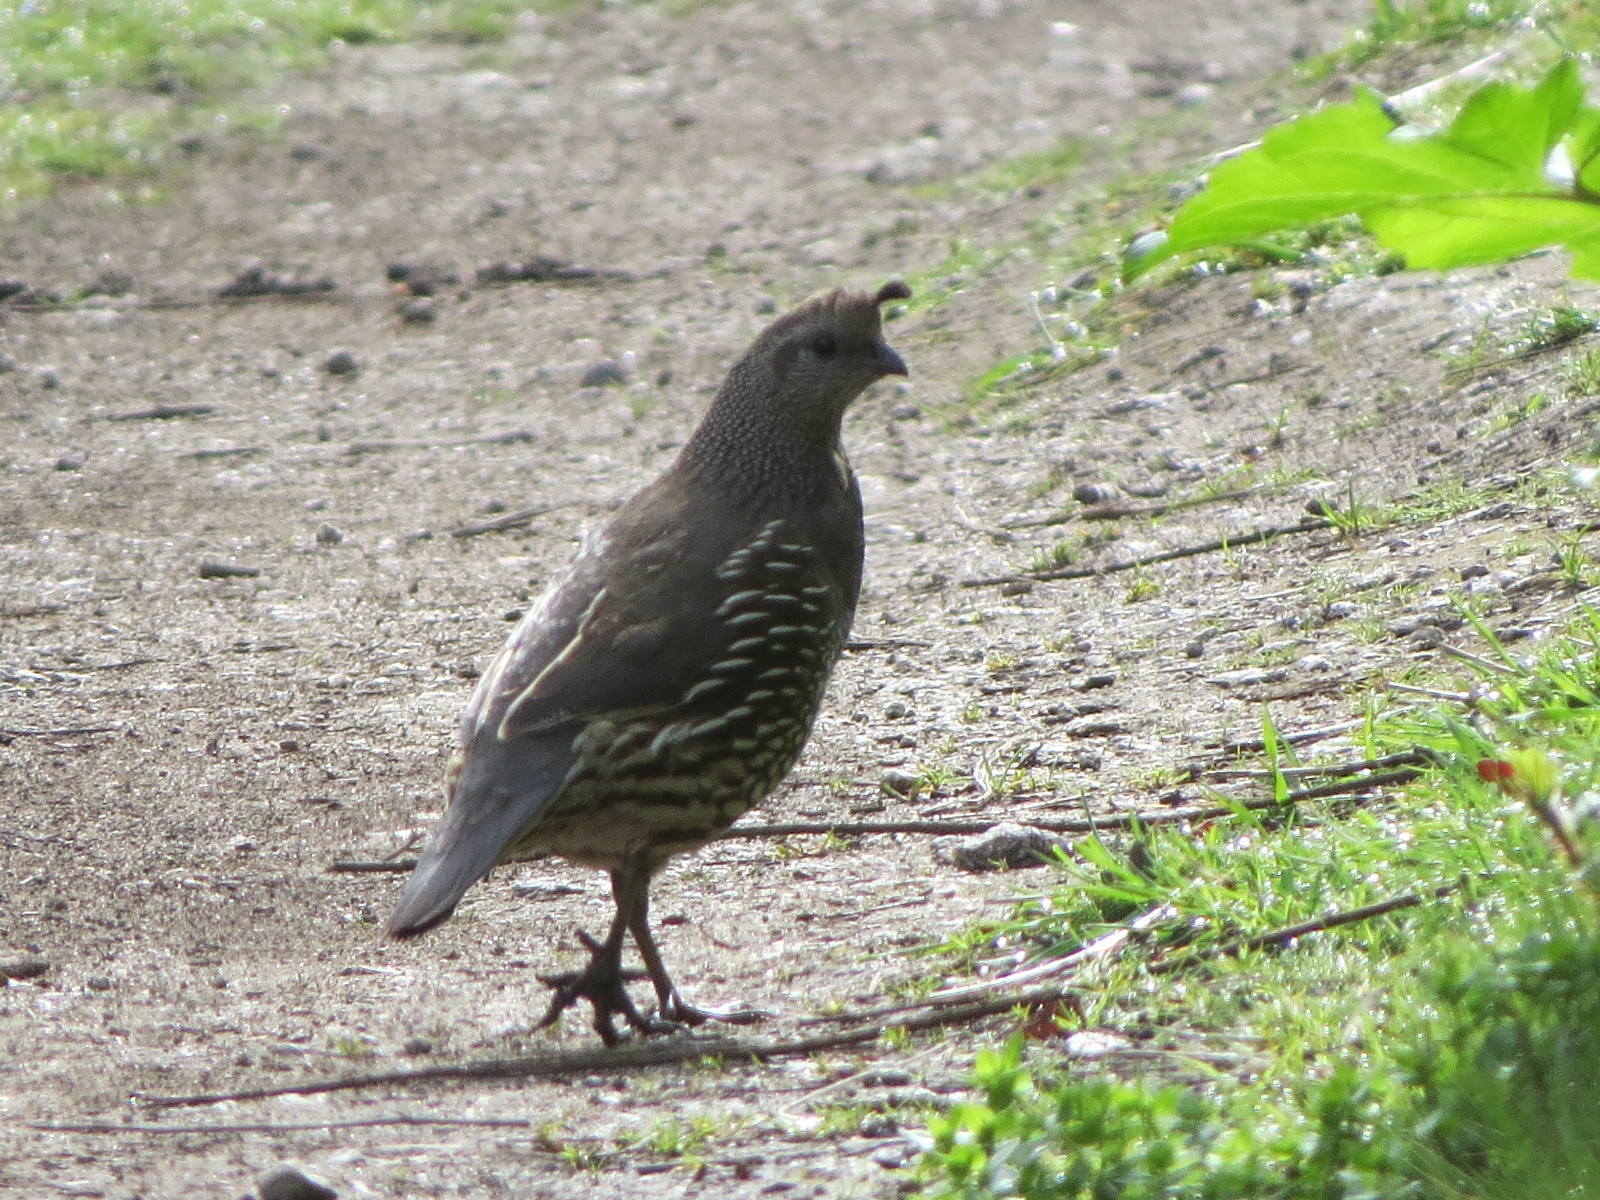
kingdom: Animalia
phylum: Chordata
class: Aves
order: Galliformes
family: Odontophoridae
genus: Callipepla
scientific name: Callipepla californica
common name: California quail
